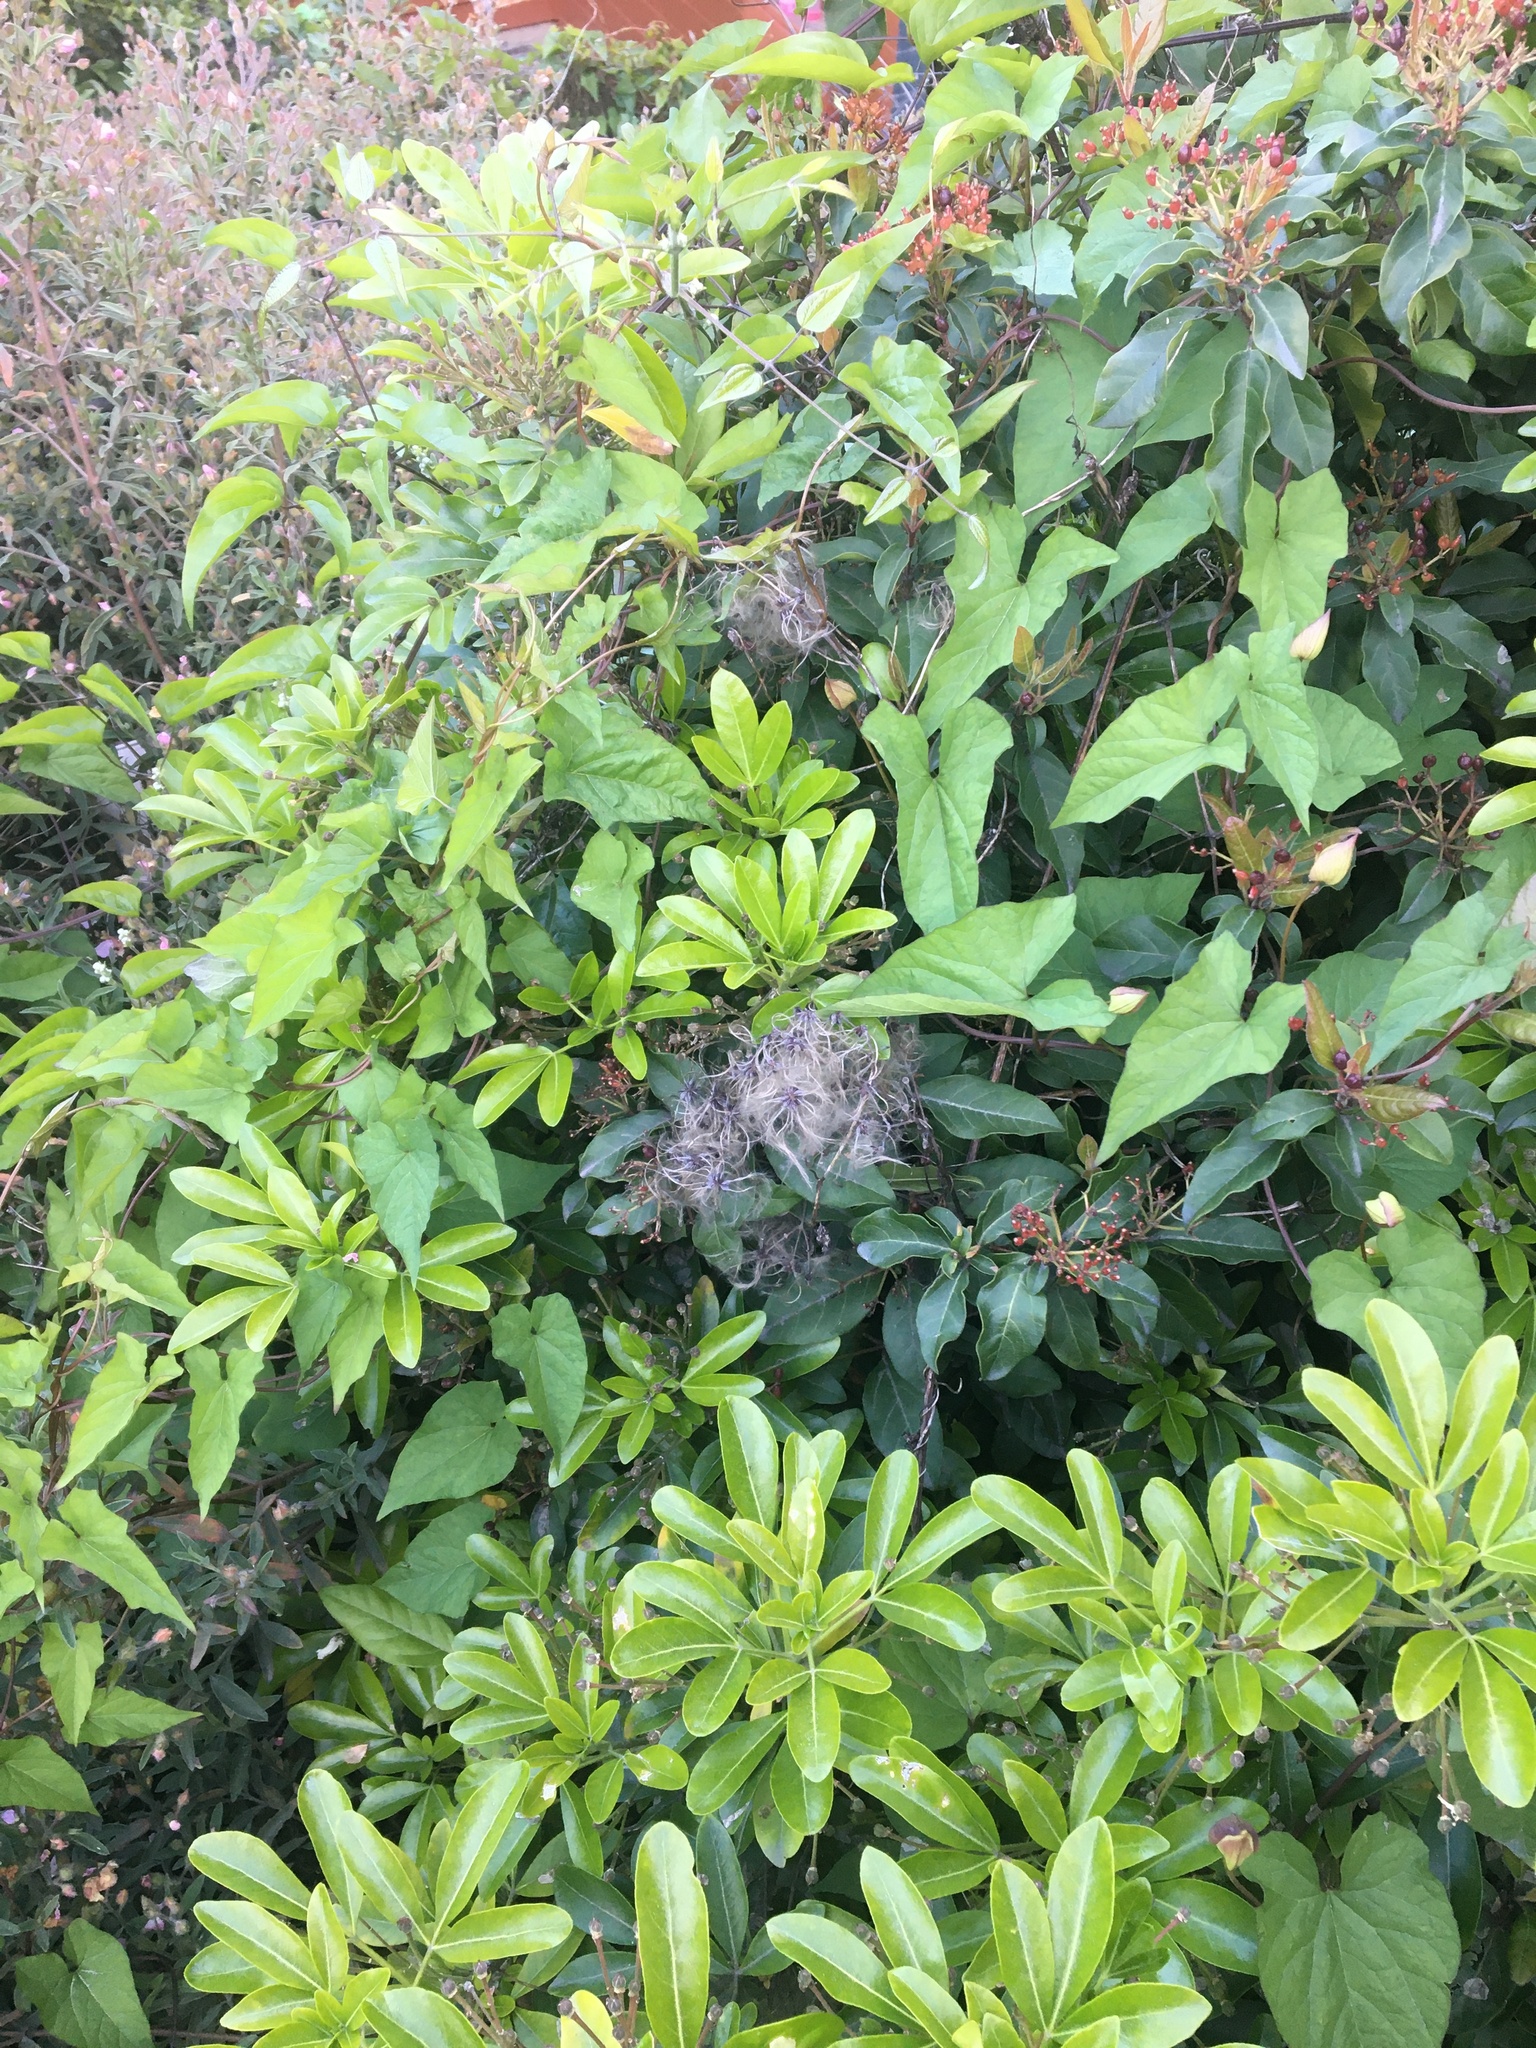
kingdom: Plantae
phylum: Tracheophyta
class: Magnoliopsida
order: Ranunculales
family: Ranunculaceae
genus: Clematis
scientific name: Clematis vitalba
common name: Evergreen clematis
